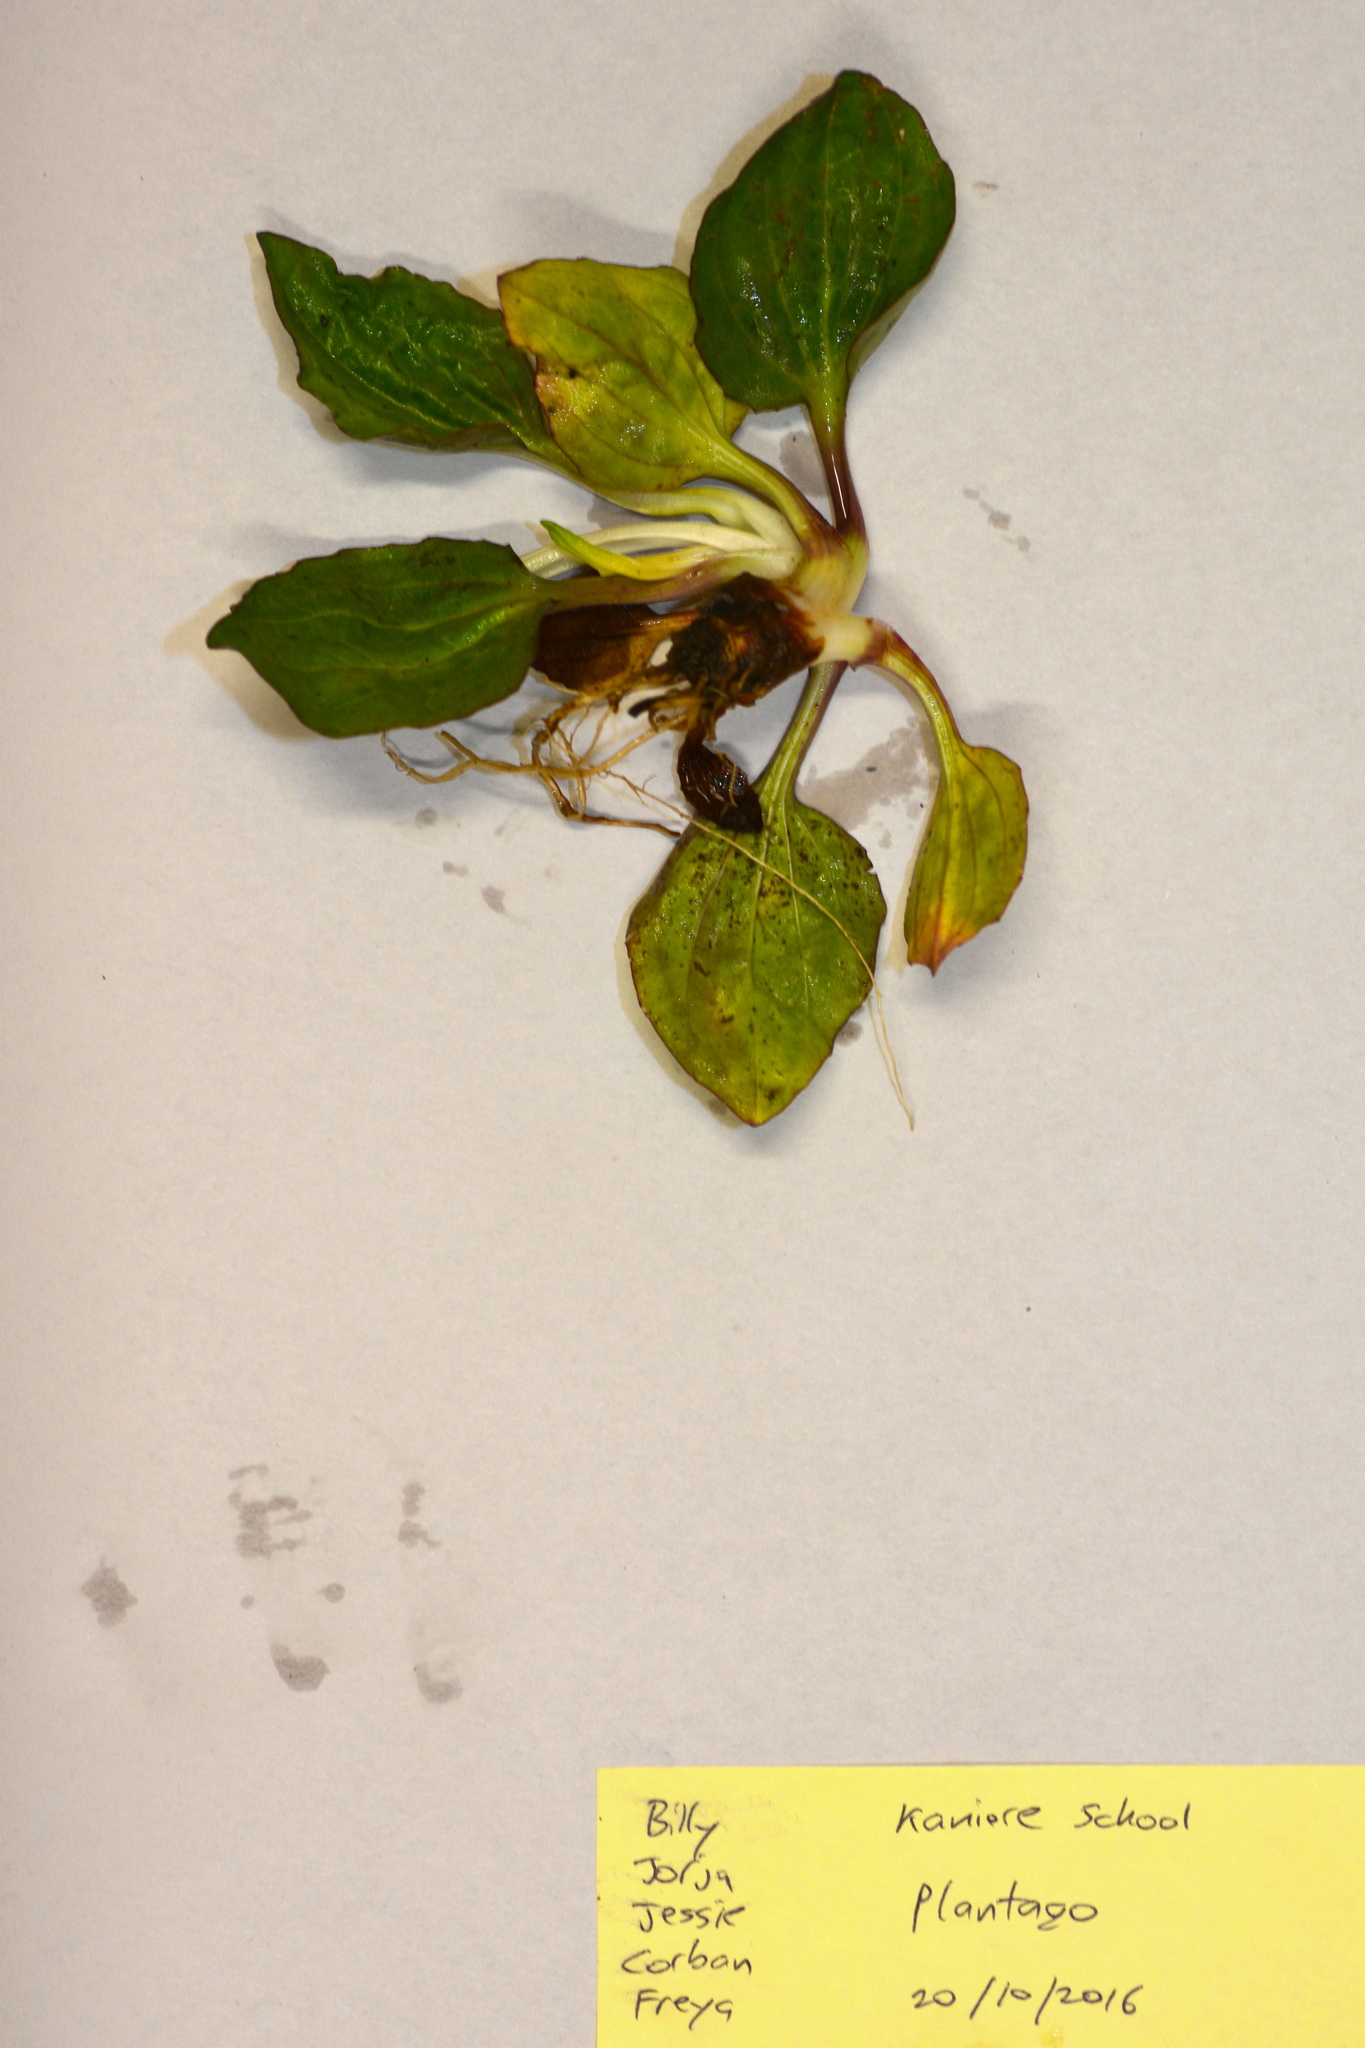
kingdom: Plantae
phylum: Tracheophyta
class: Magnoliopsida
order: Lamiales
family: Plantaginaceae
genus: Plantago
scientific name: Plantago major
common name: Common plantain
